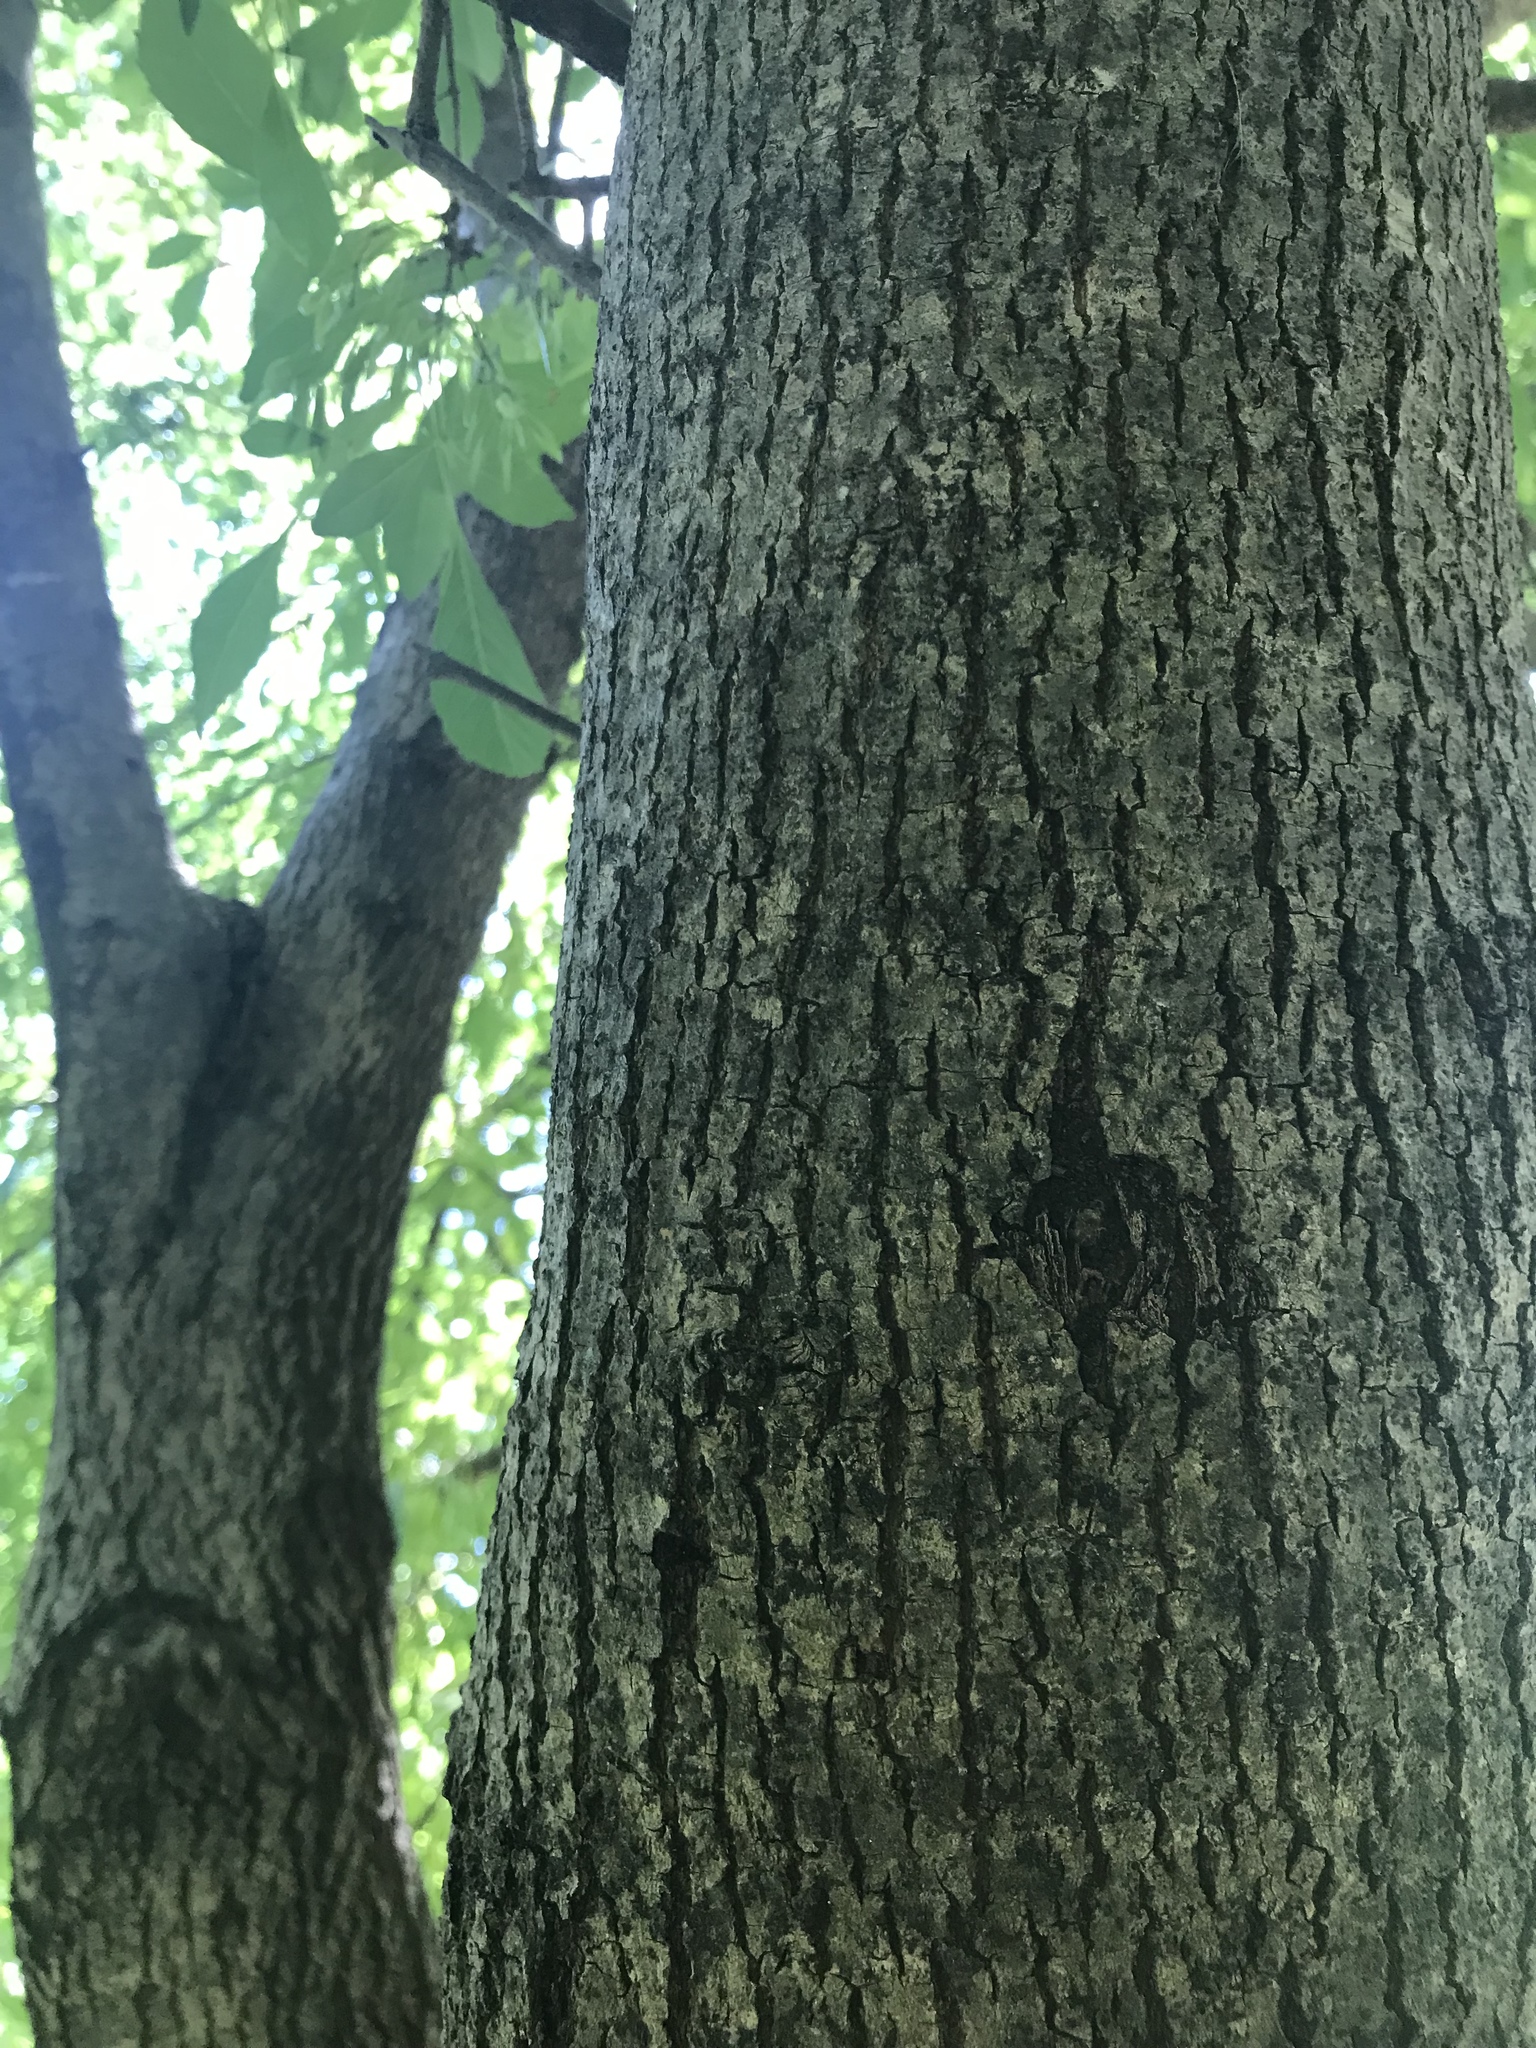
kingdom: Plantae
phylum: Tracheophyta
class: Magnoliopsida
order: Lamiales
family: Oleaceae
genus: Fraxinus
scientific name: Fraxinus berlandieriana
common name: Berlandier ash
